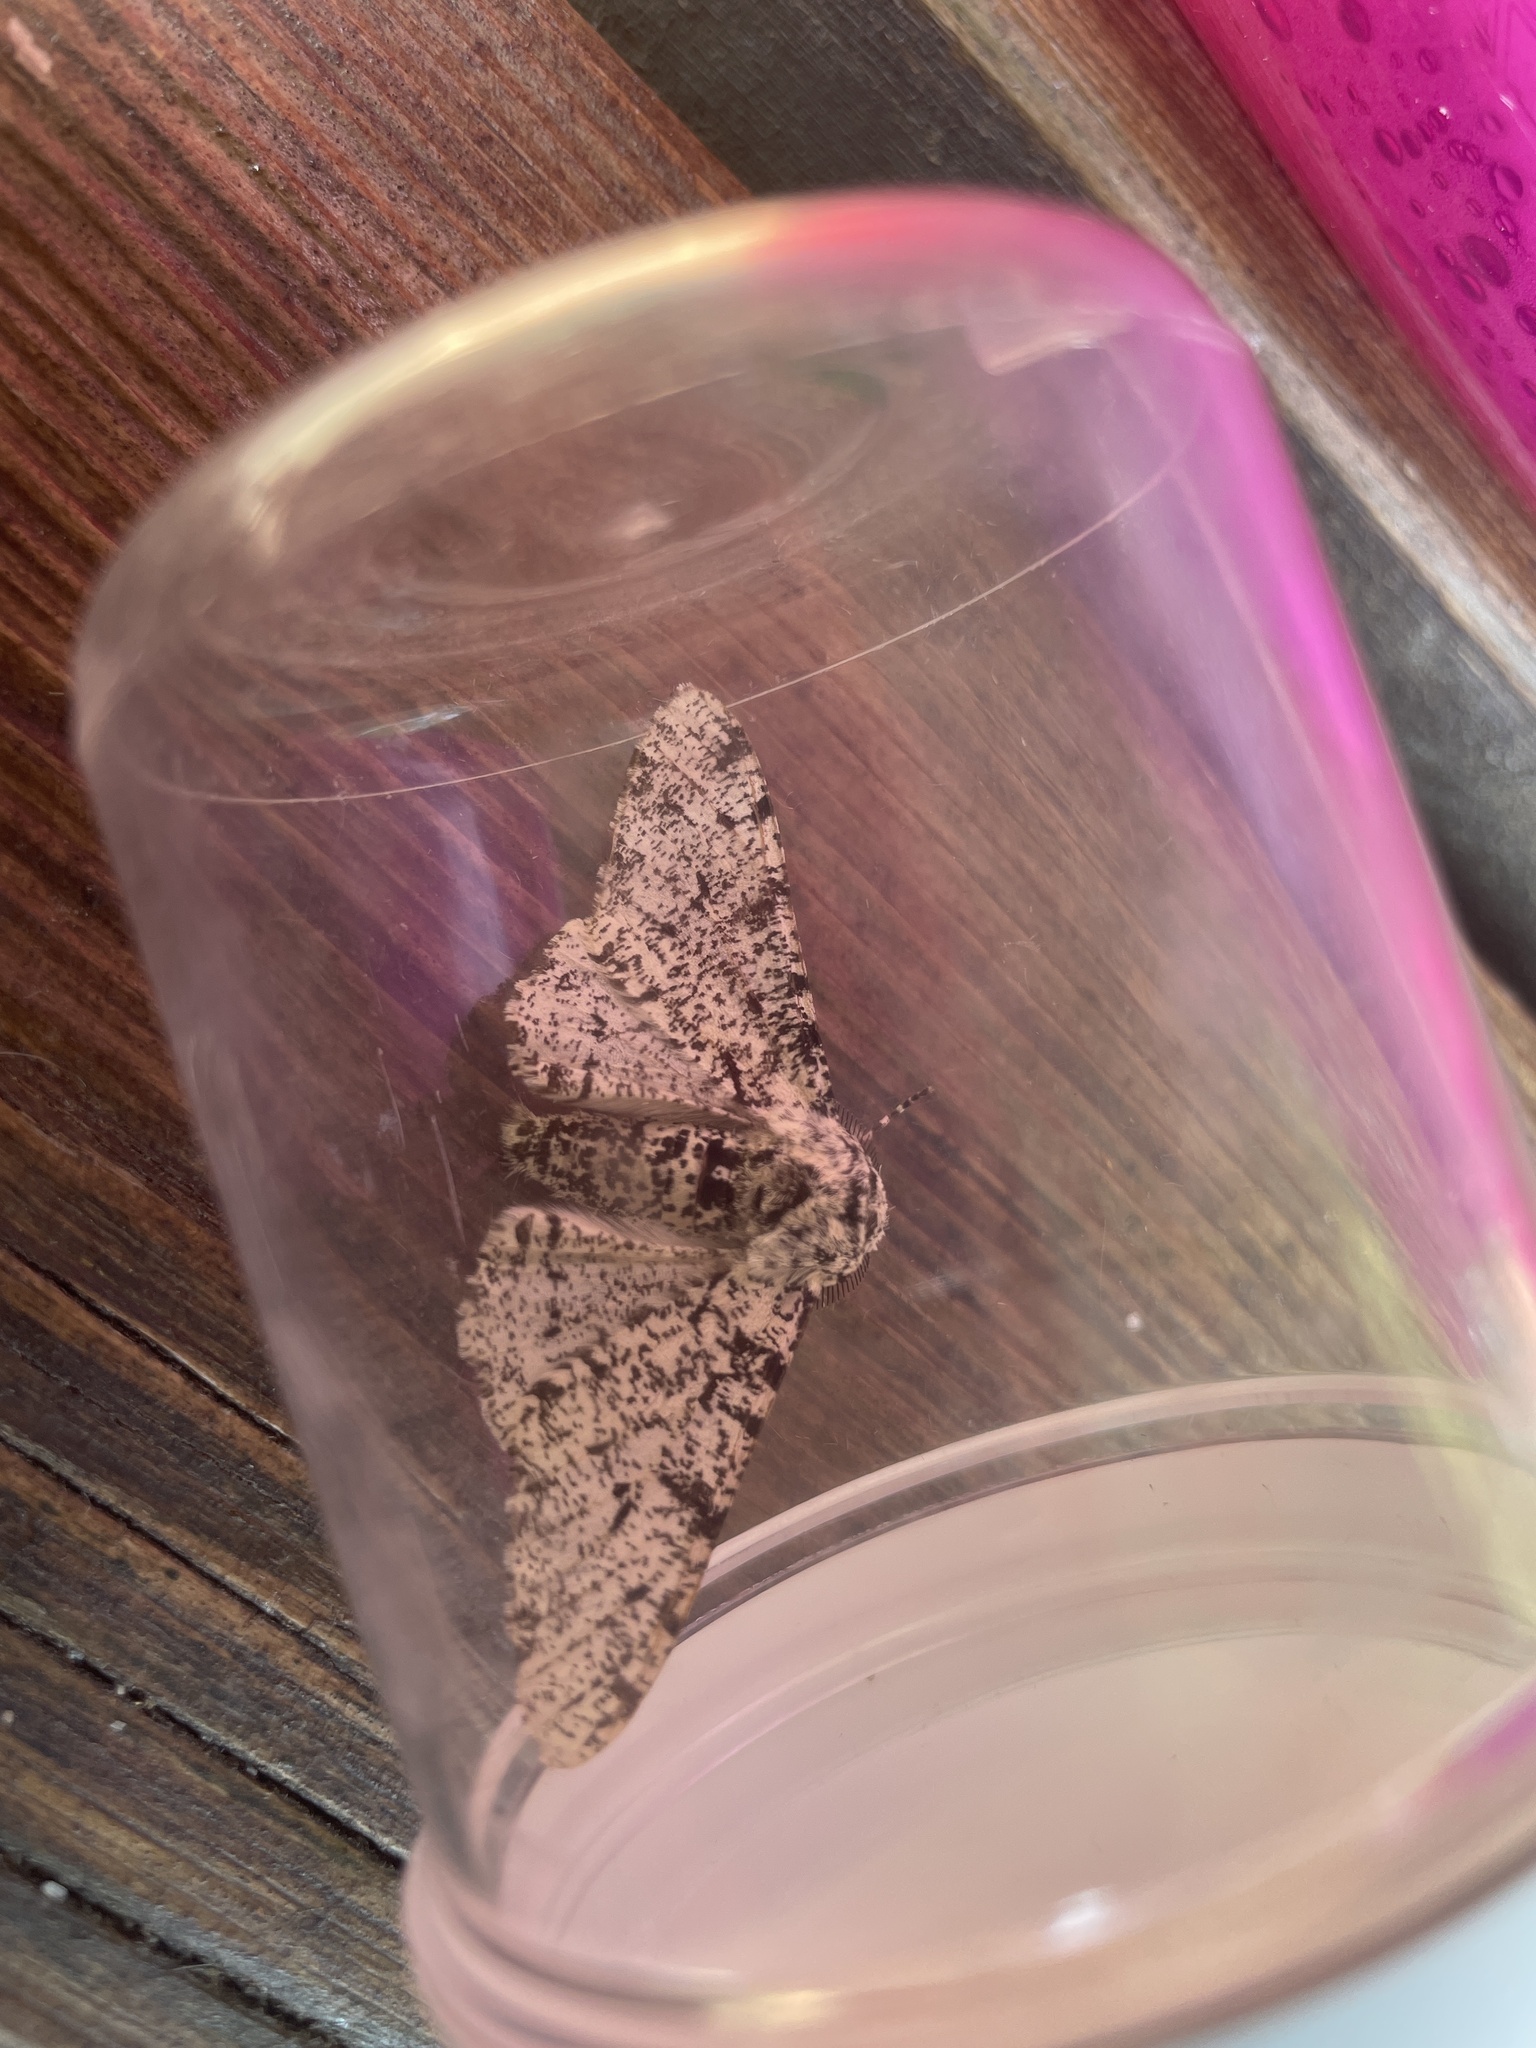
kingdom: Animalia
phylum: Arthropoda
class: Insecta
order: Lepidoptera
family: Geometridae
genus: Biston
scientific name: Biston betularia
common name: Peppered moth
